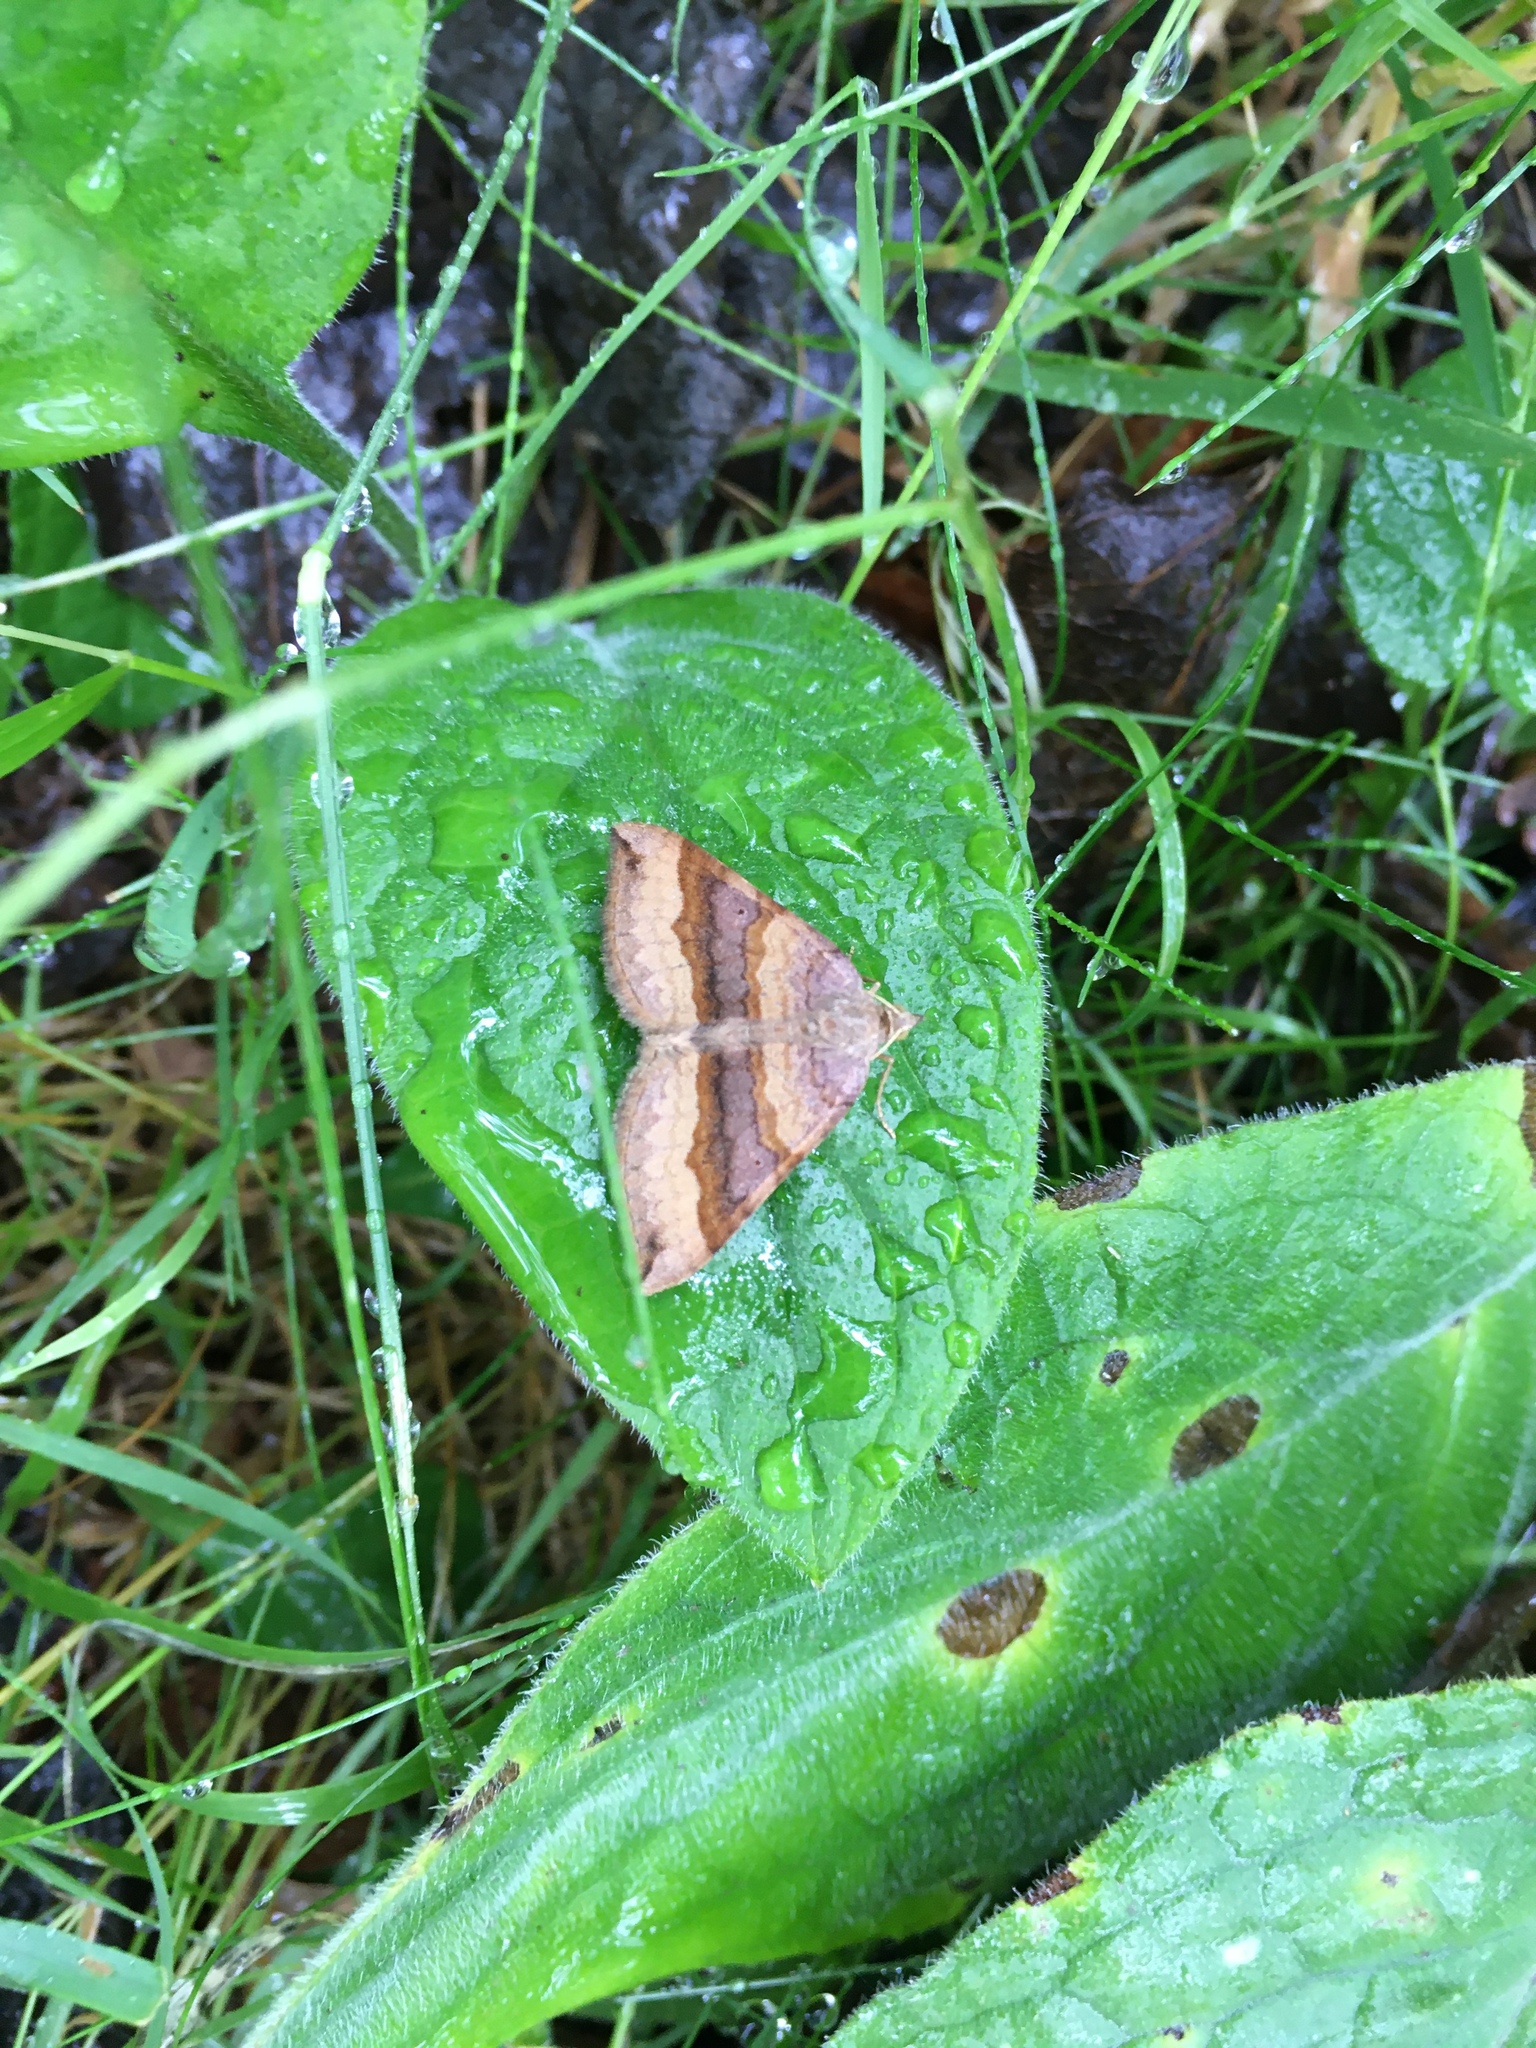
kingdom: Animalia
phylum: Arthropoda
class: Insecta
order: Lepidoptera
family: Geometridae
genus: Scotopteryx
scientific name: Scotopteryx chenopodiata
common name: Shaded broad-bar
